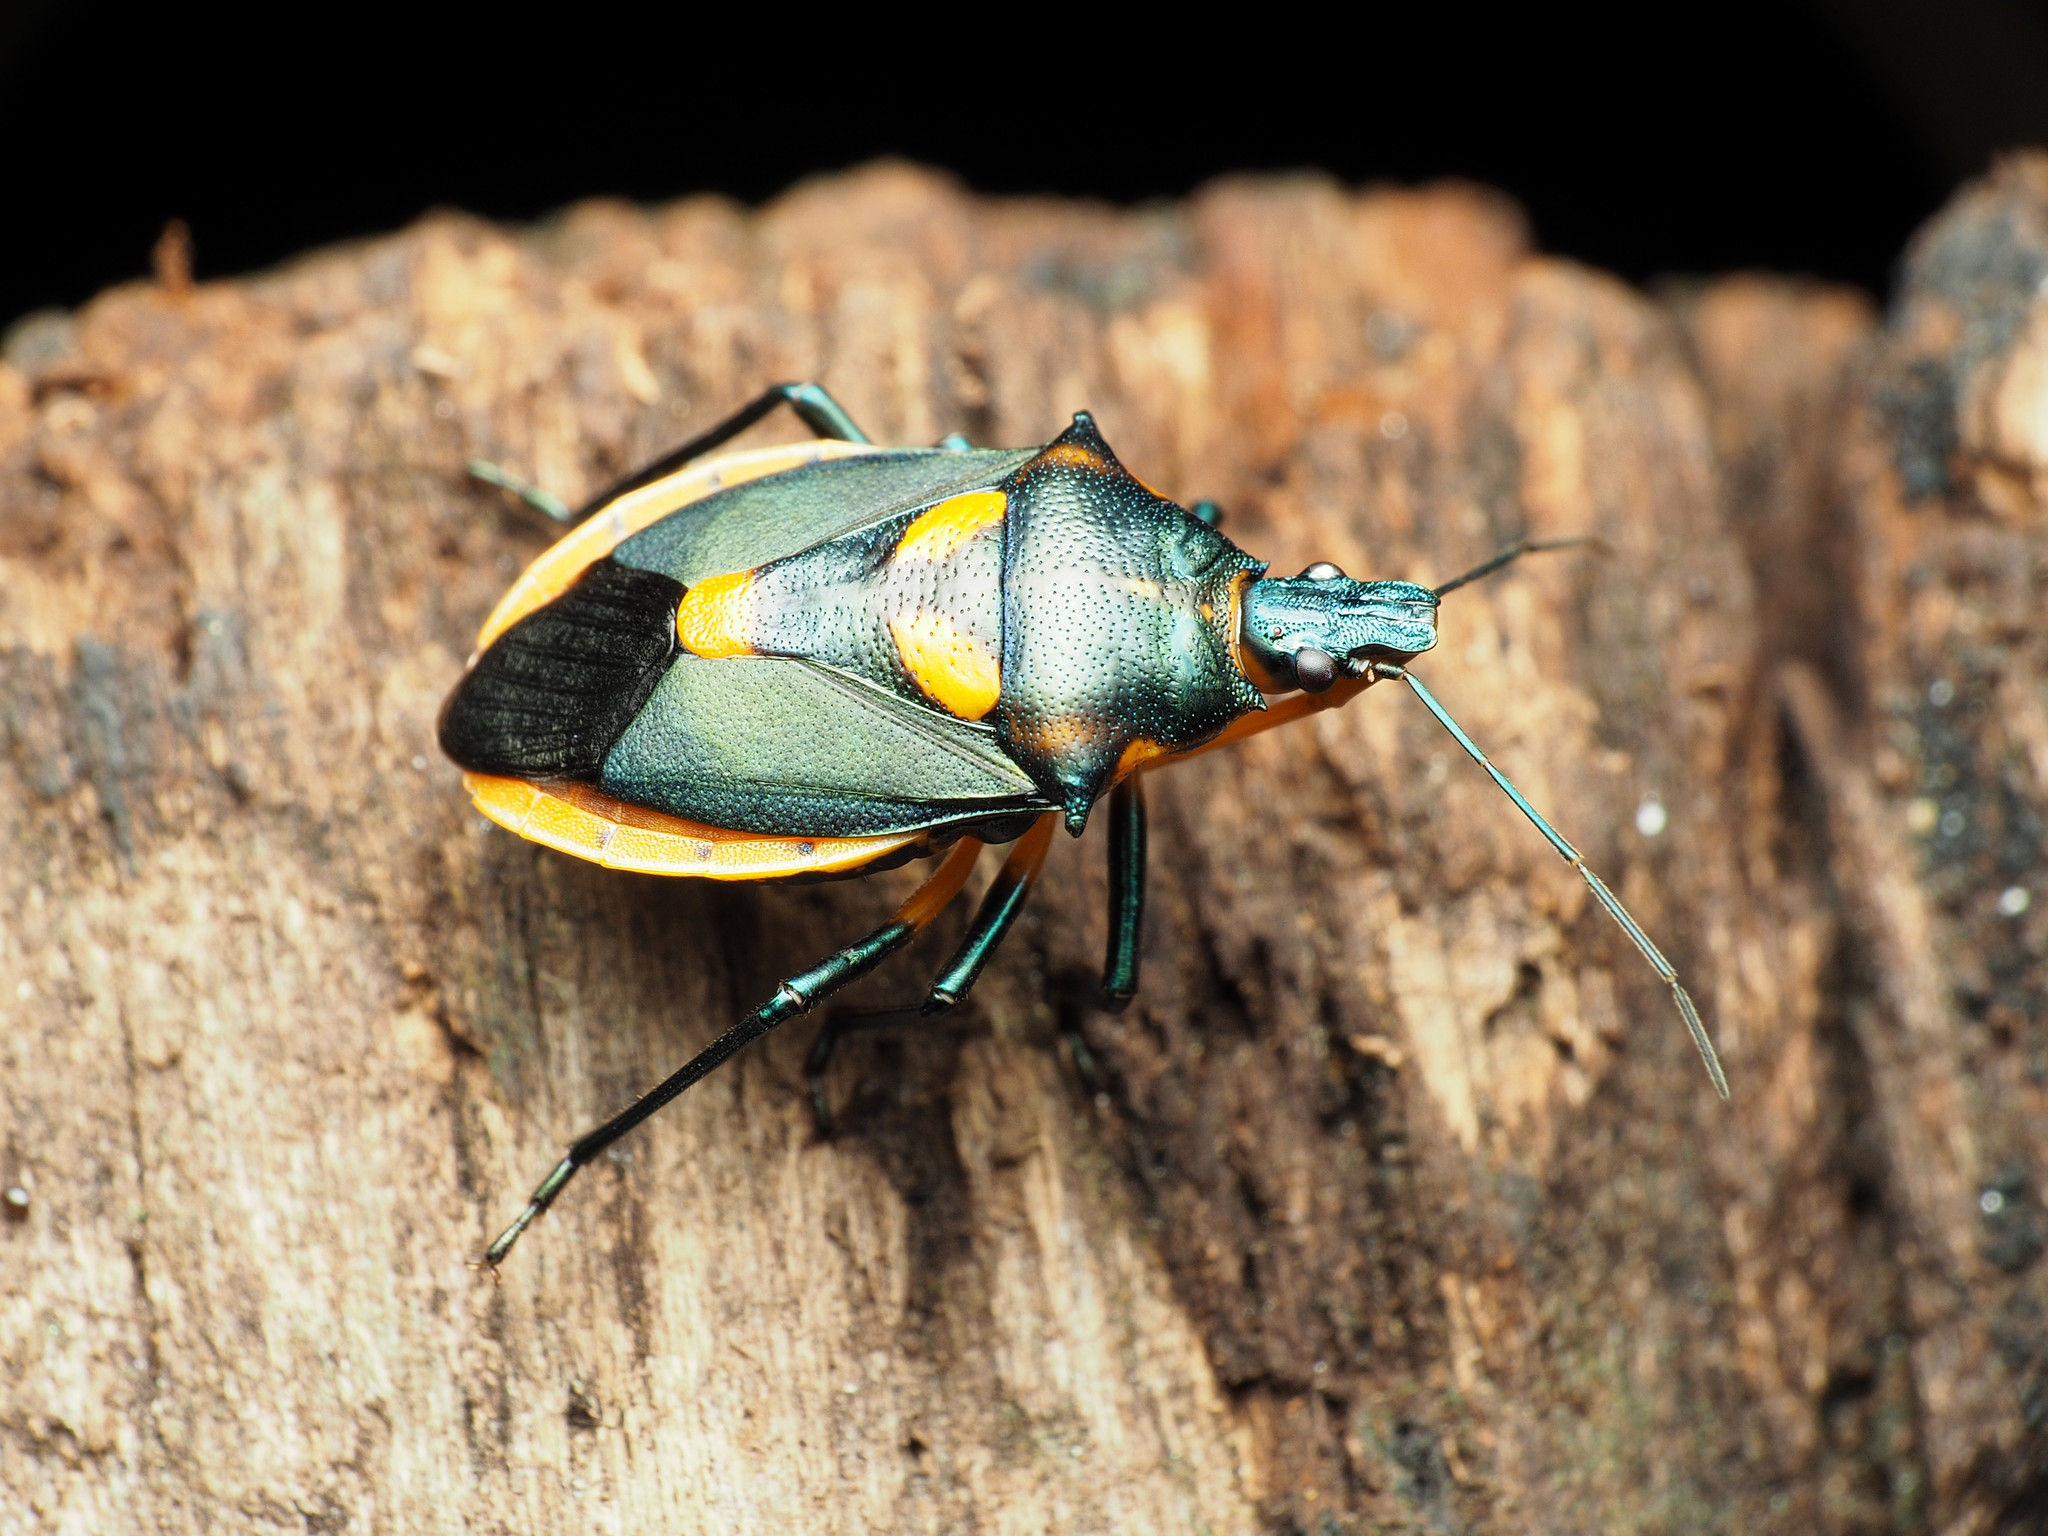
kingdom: Animalia
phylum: Arthropoda
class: Insecta
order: Hemiptera
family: Pentatomidae
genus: Euthyrhynchus
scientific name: Euthyrhynchus floridanus
